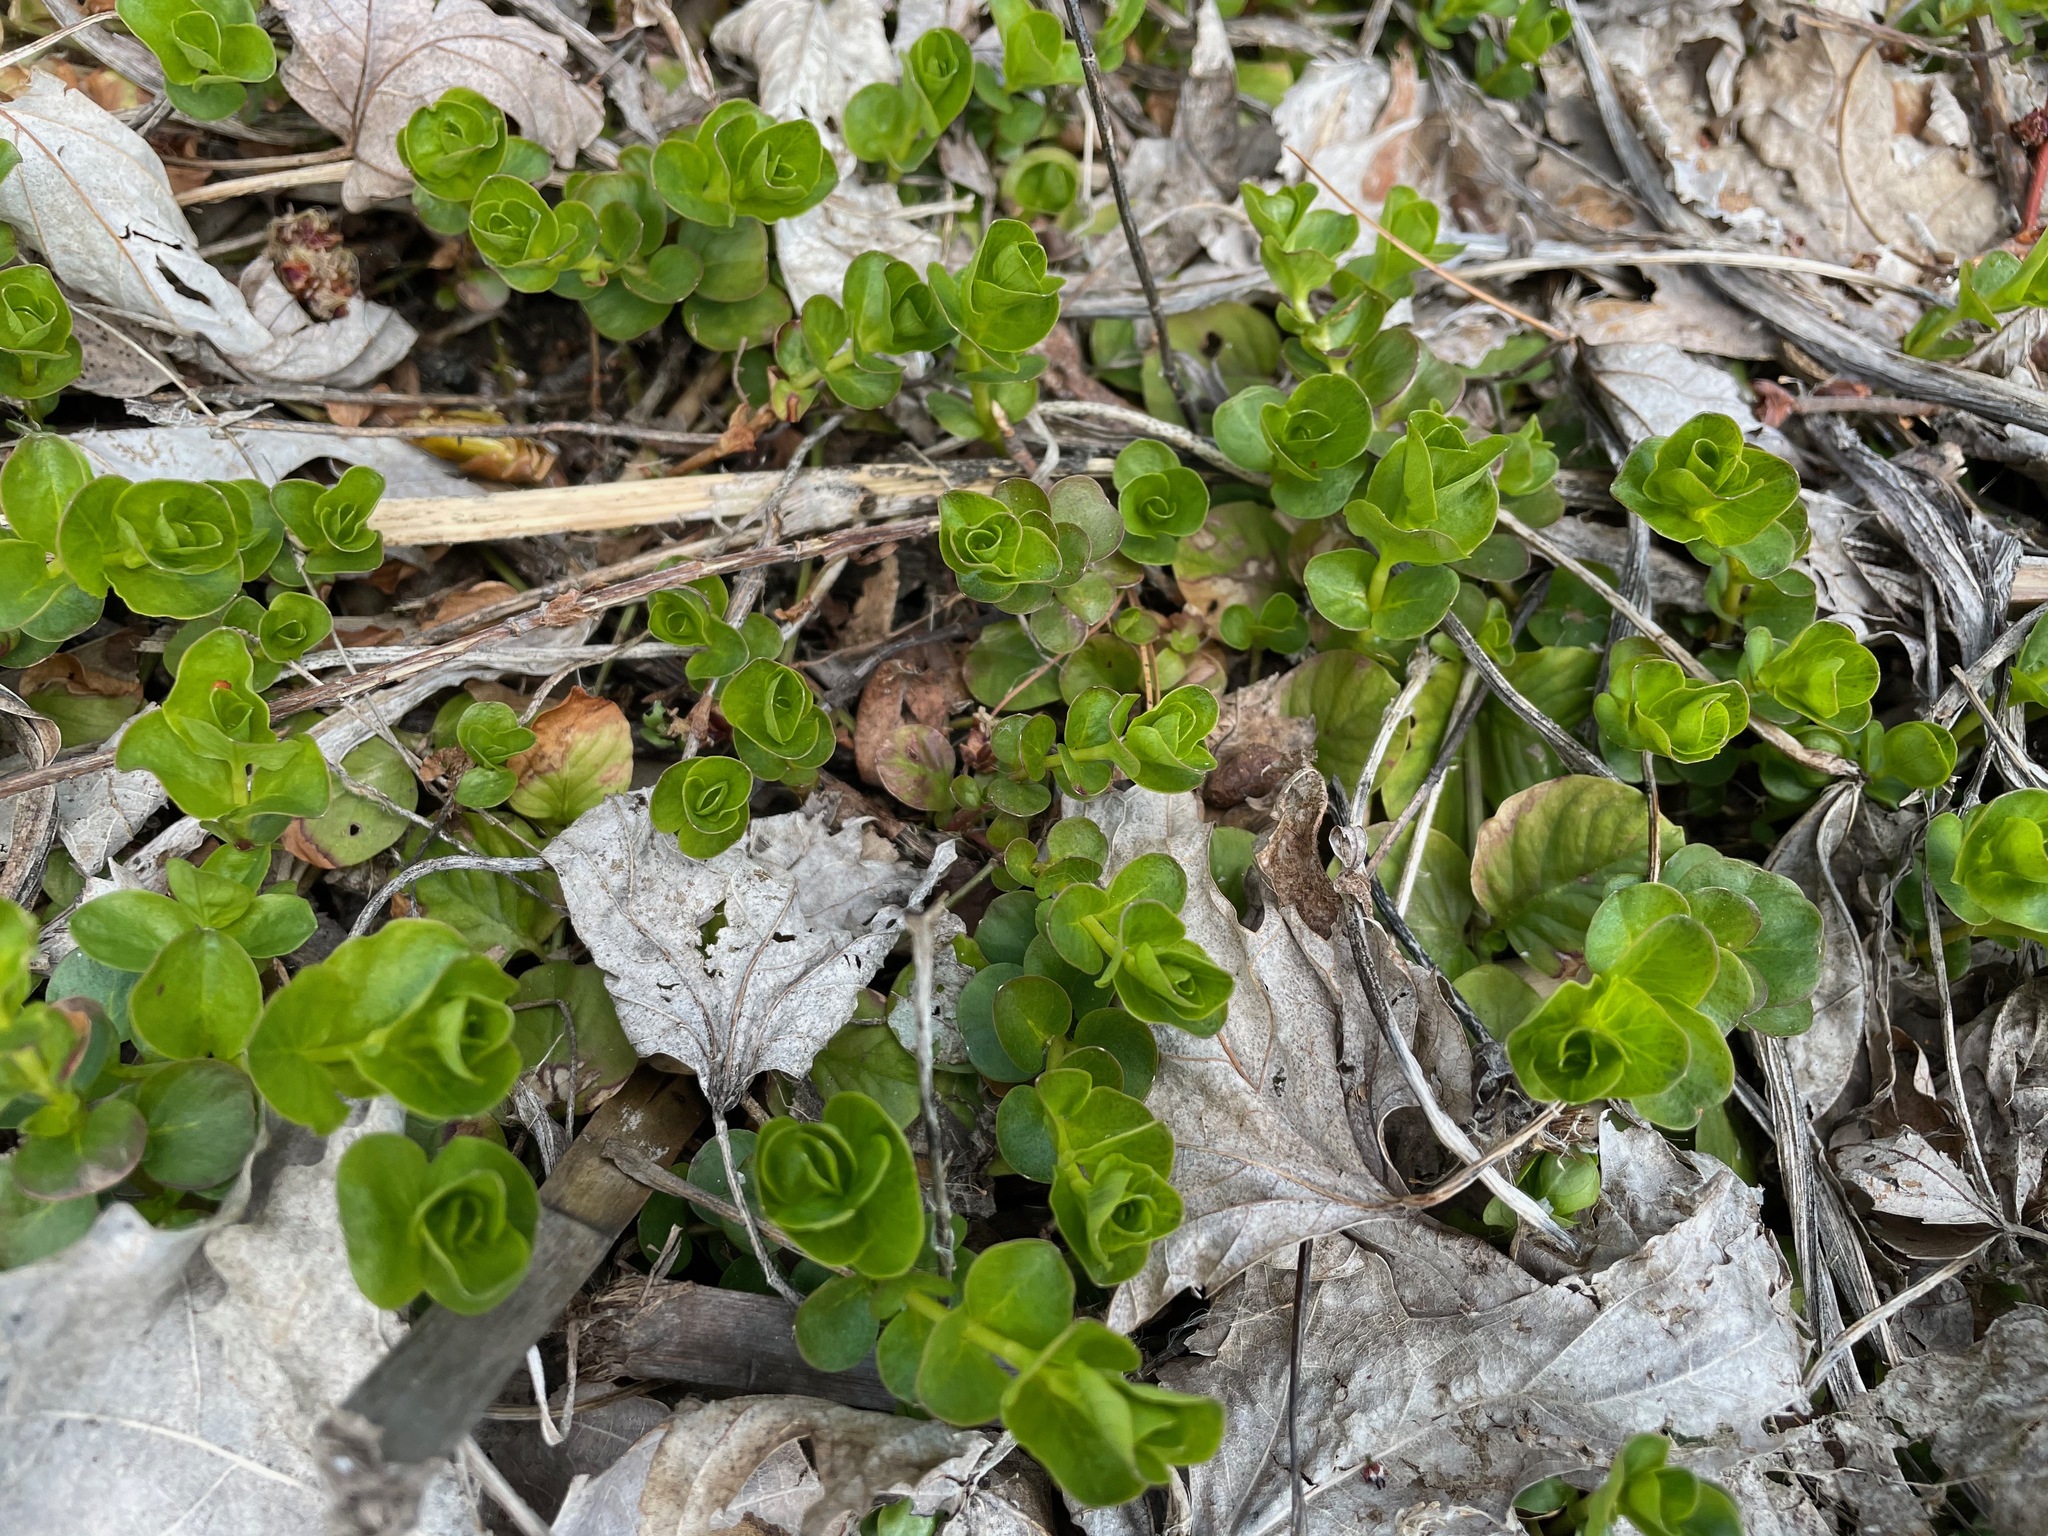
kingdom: Plantae
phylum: Tracheophyta
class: Magnoliopsida
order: Ericales
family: Primulaceae
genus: Lysimachia
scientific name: Lysimachia nummularia
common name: Moneywort
